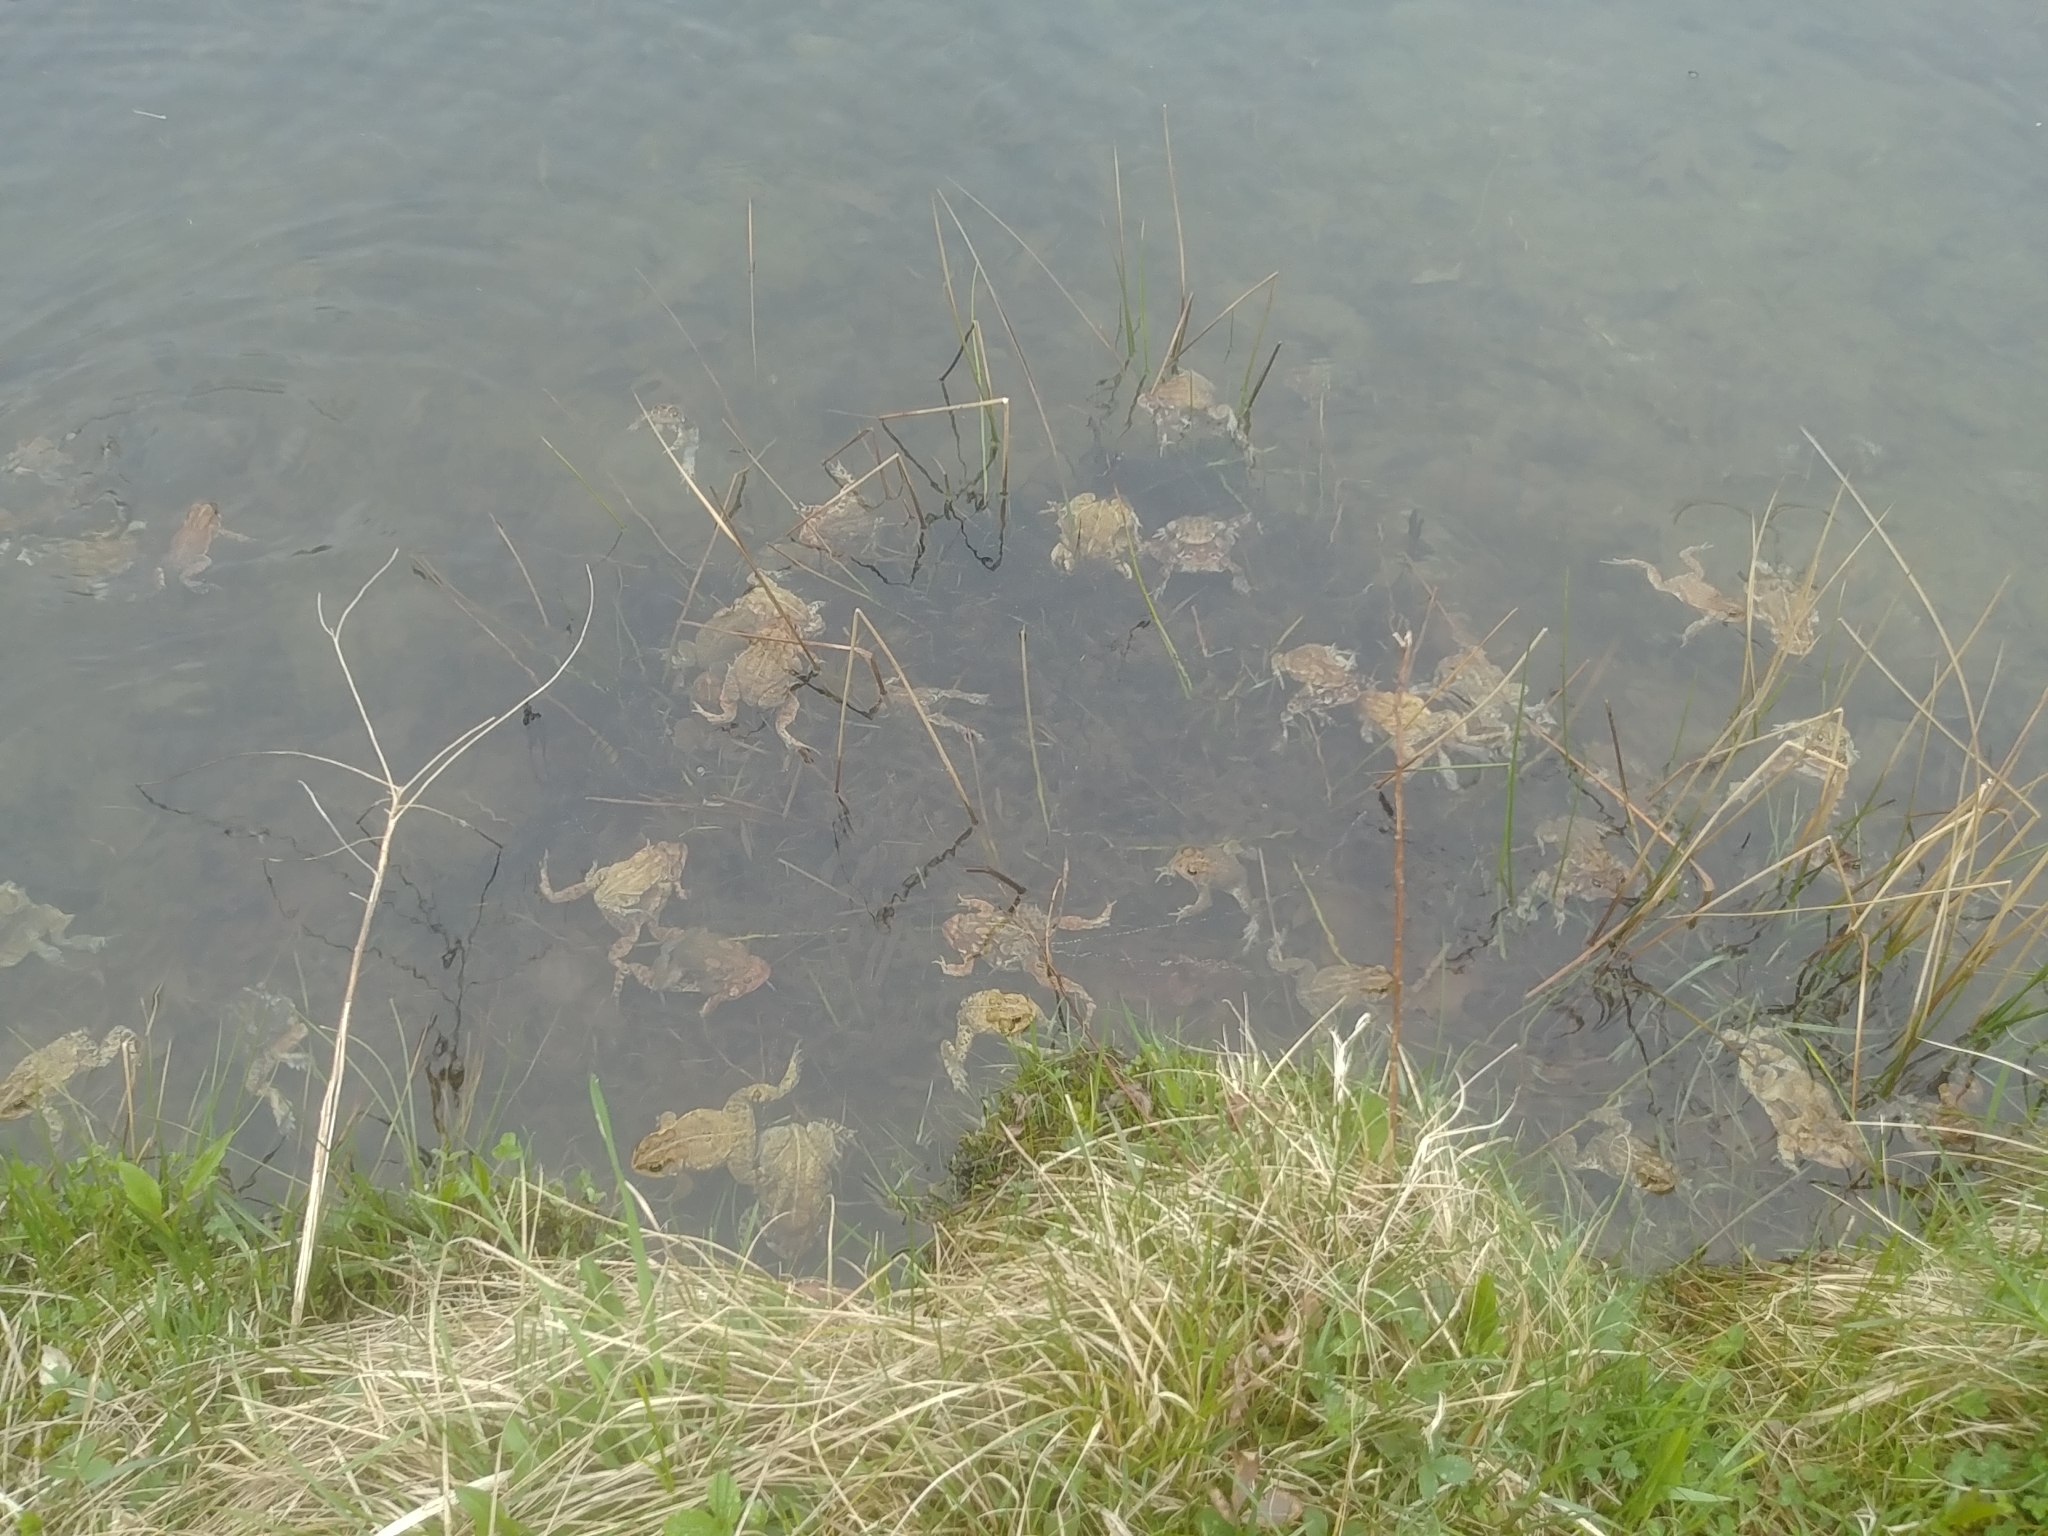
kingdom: Animalia
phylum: Chordata
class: Amphibia
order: Anura
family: Bufonidae
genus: Anaxyrus
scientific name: Anaxyrus americanus
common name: American toad
